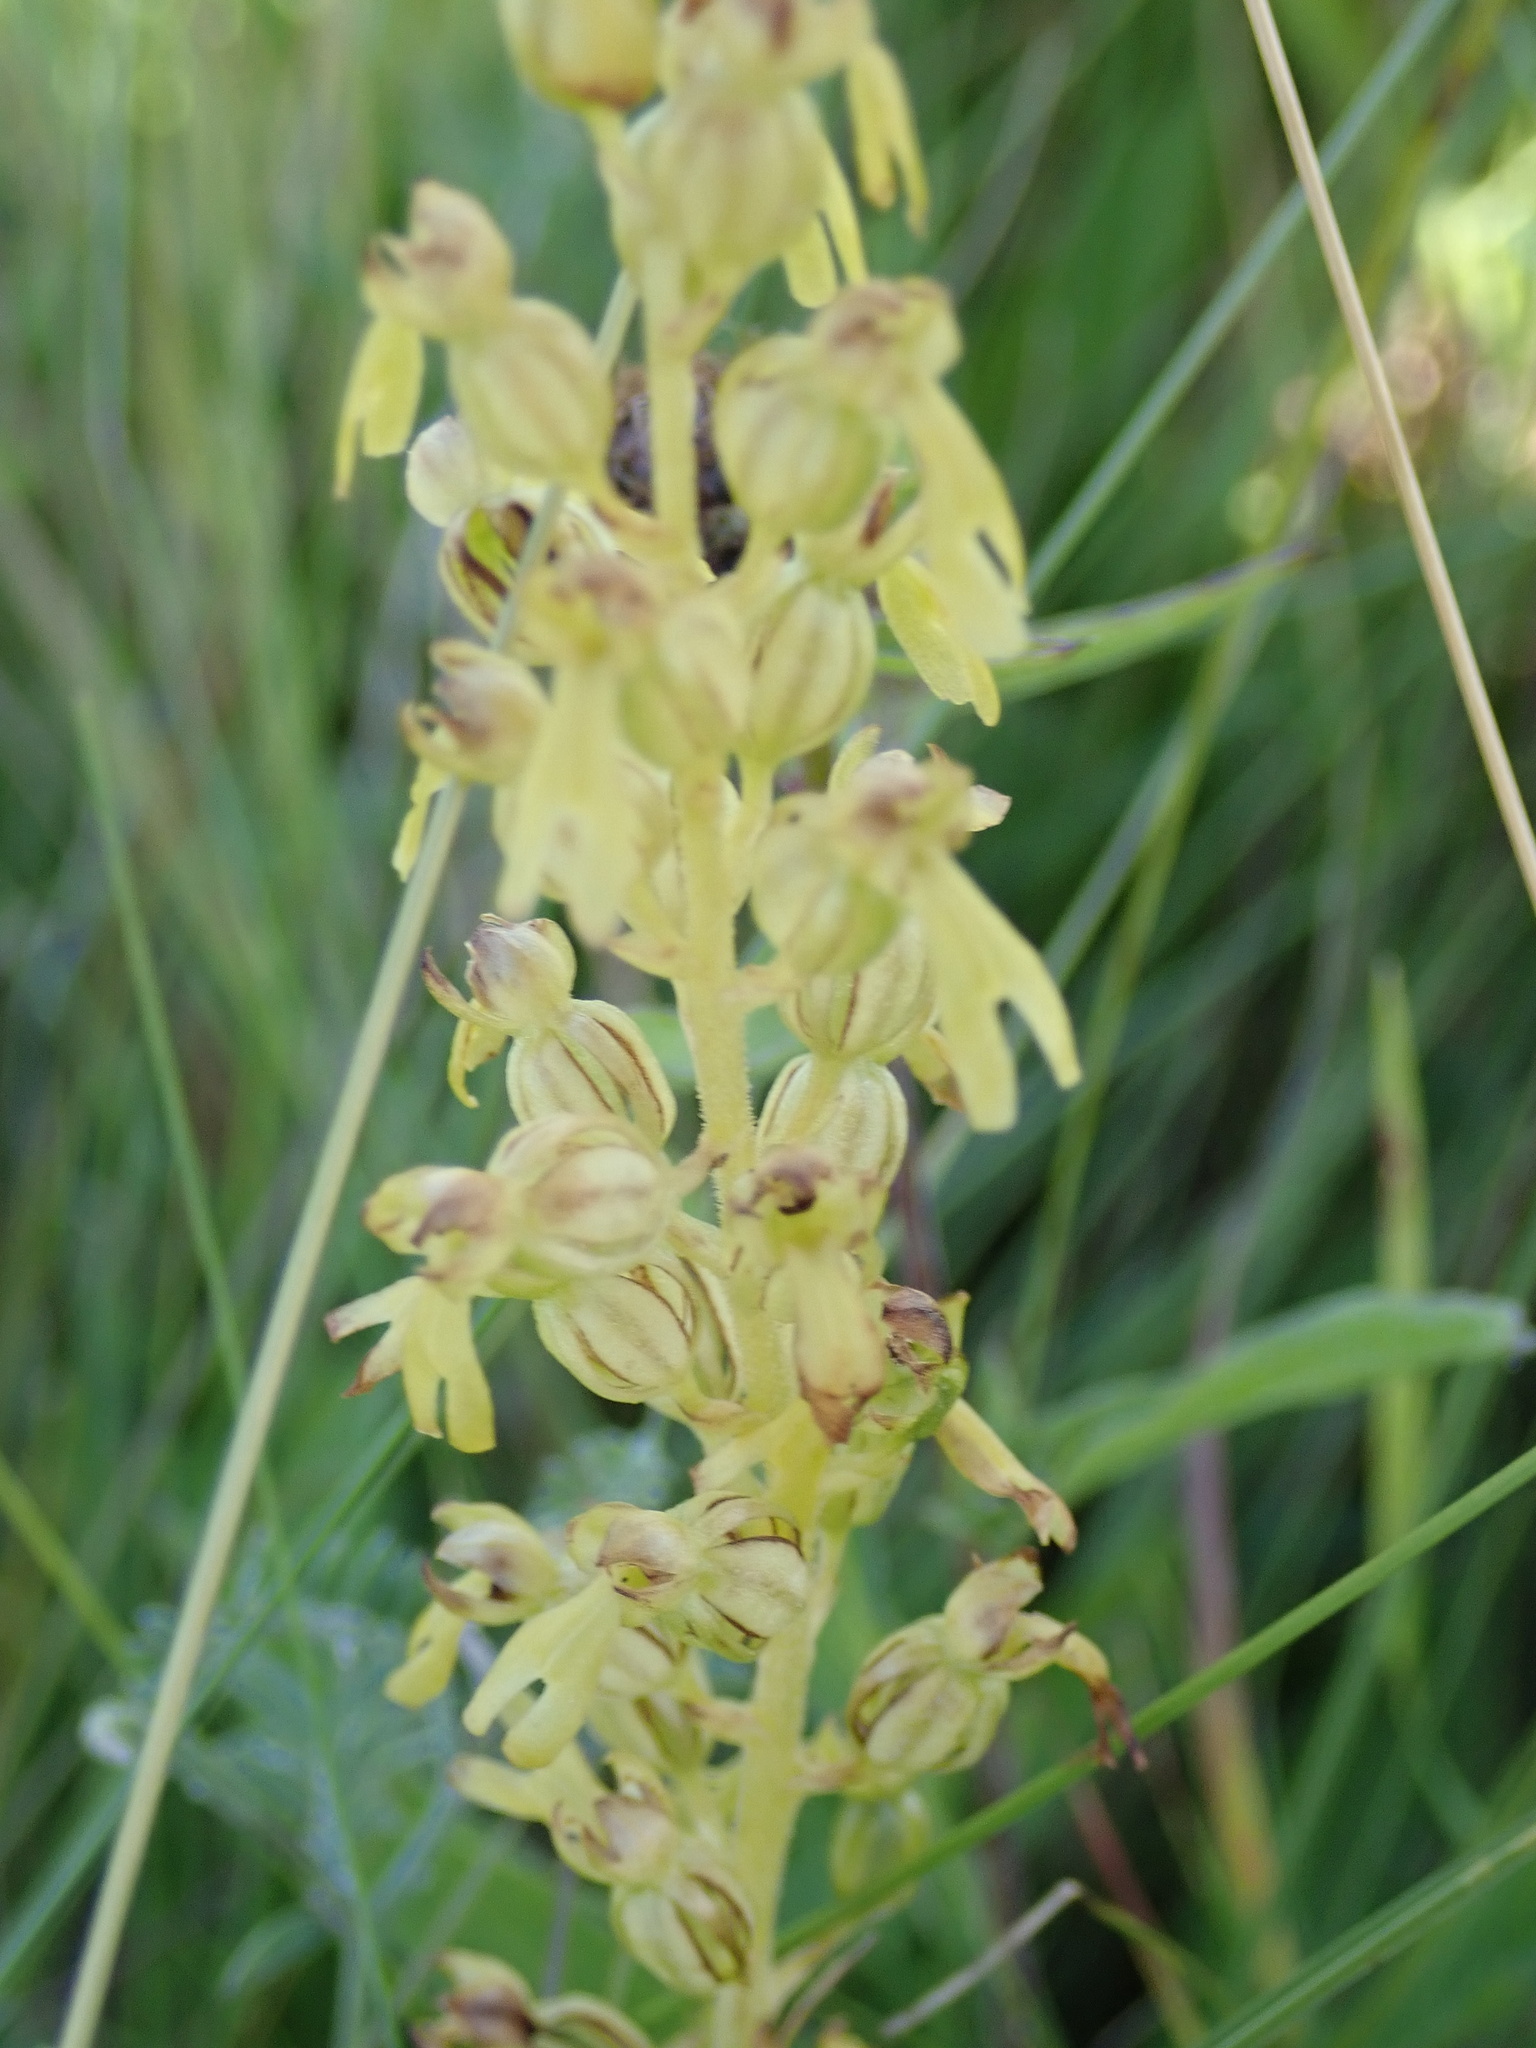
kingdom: Plantae
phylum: Tracheophyta
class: Liliopsida
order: Asparagales
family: Orchidaceae
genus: Neottia
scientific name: Neottia ovata
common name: Common twayblade
